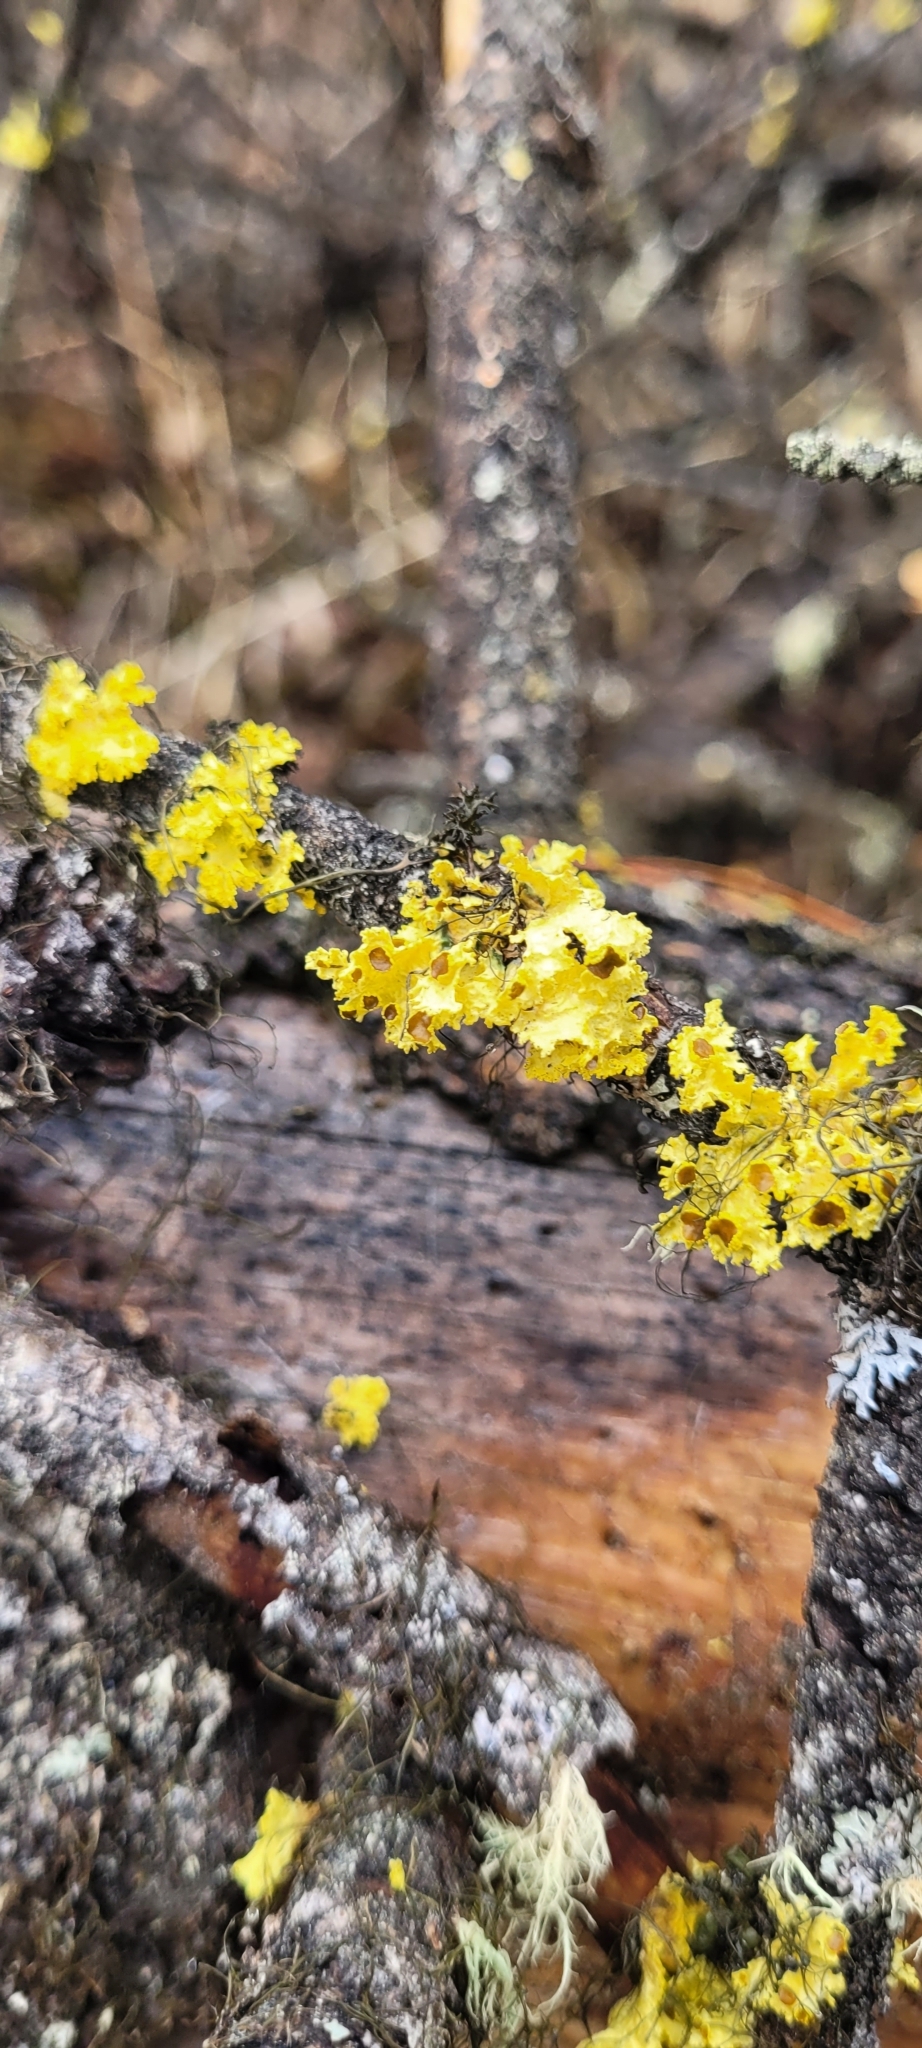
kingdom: Fungi
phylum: Ascomycota
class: Lecanoromycetes
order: Lecanorales
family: Parmeliaceae
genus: Vulpicida
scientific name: Vulpicida canadensis
